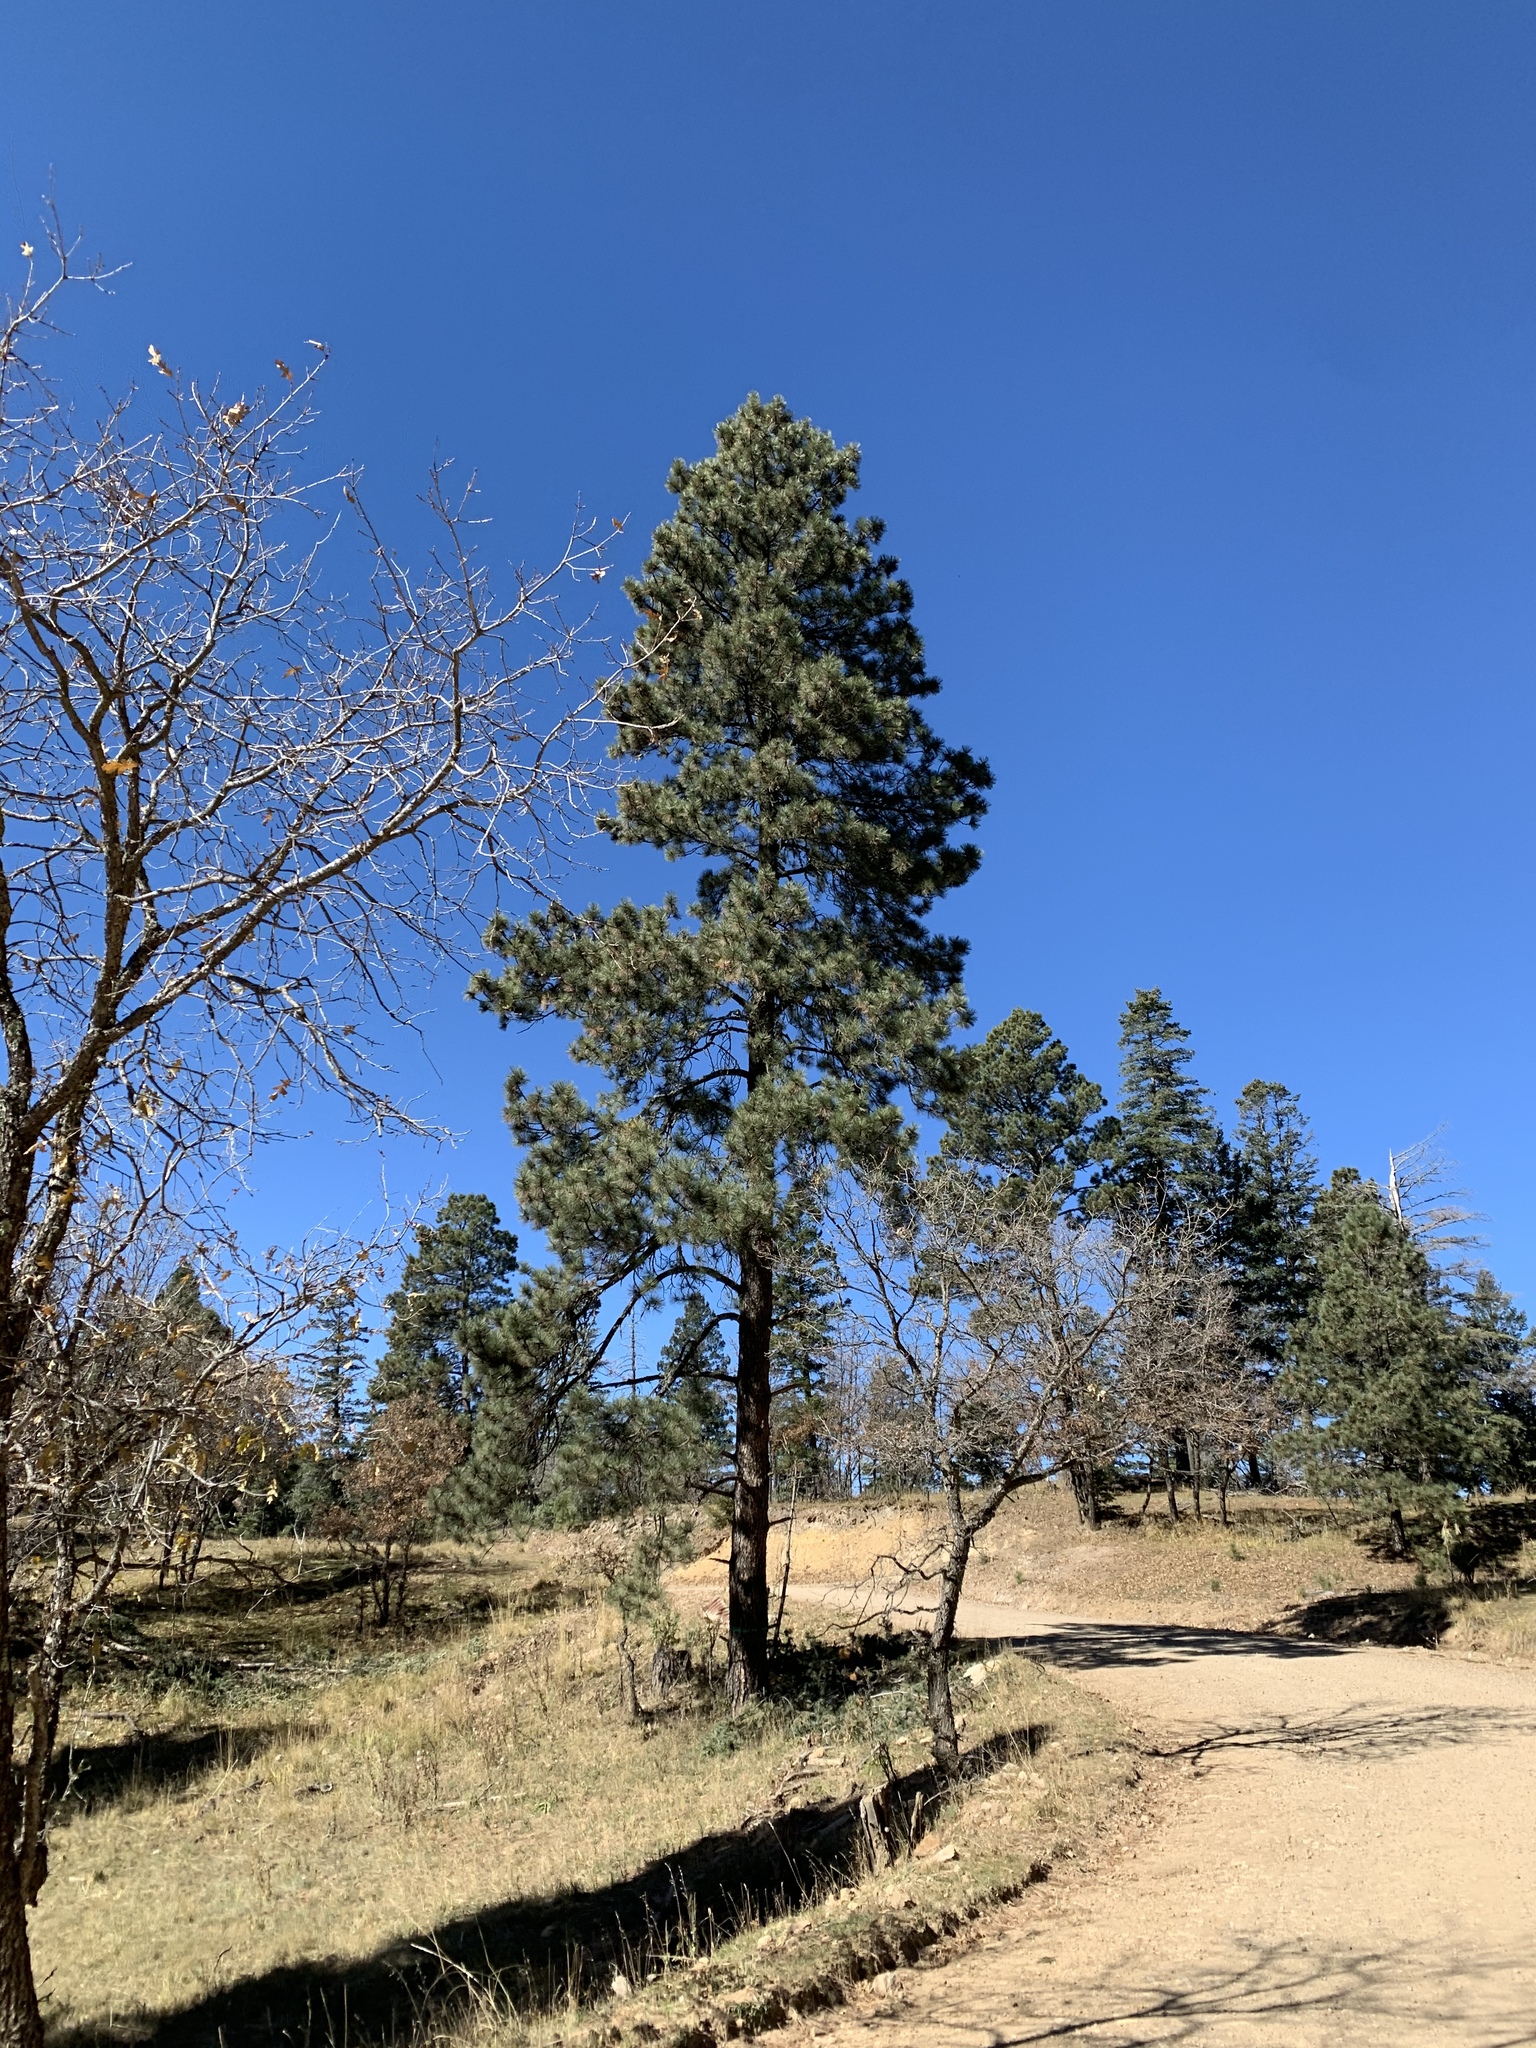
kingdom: Plantae
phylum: Tracheophyta
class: Pinopsida
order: Pinales
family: Pinaceae
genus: Pinus
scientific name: Pinus ponderosa
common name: Western yellow-pine
